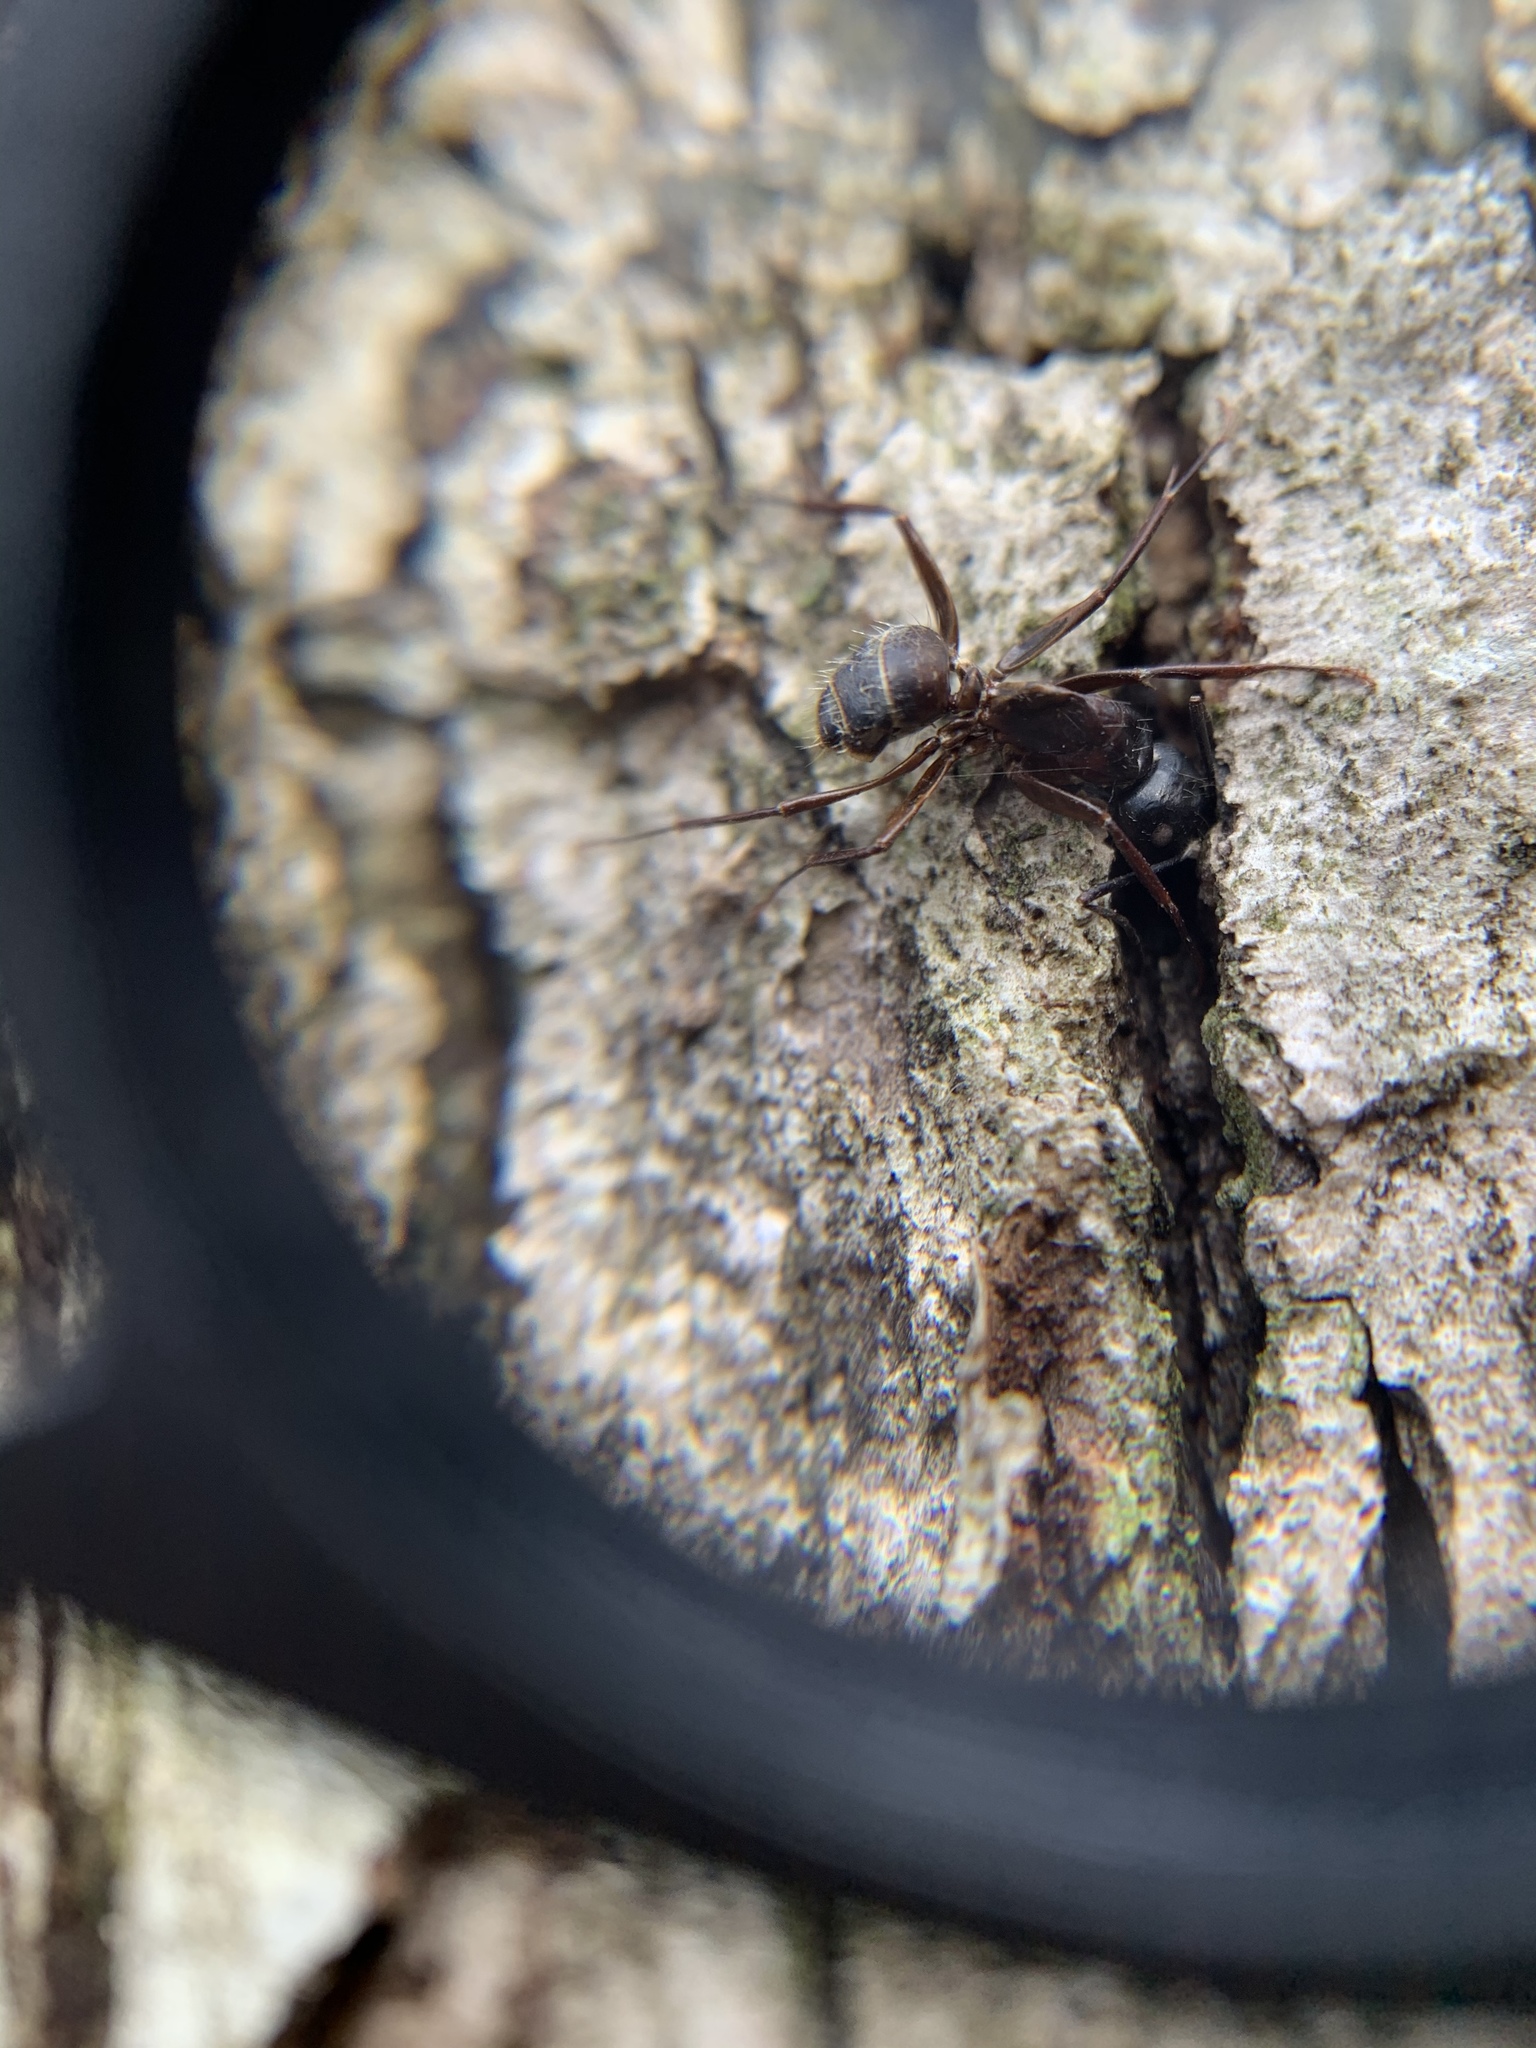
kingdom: Animalia
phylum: Arthropoda
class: Insecta
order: Hymenoptera
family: Formicidae
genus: Camponotus
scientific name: Camponotus chromaiodes
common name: Red carpenter ant
